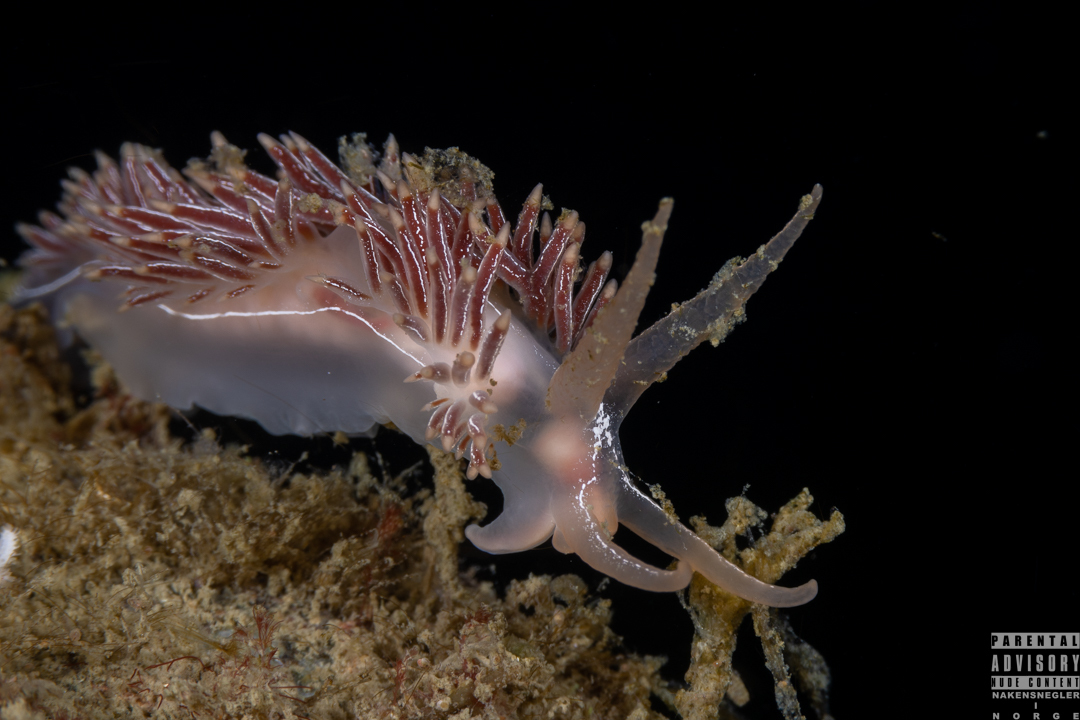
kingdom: Animalia
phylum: Mollusca
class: Gastropoda
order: Nudibranchia
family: Coryphellidae
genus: Coryphella
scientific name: Coryphella chriskaugei
